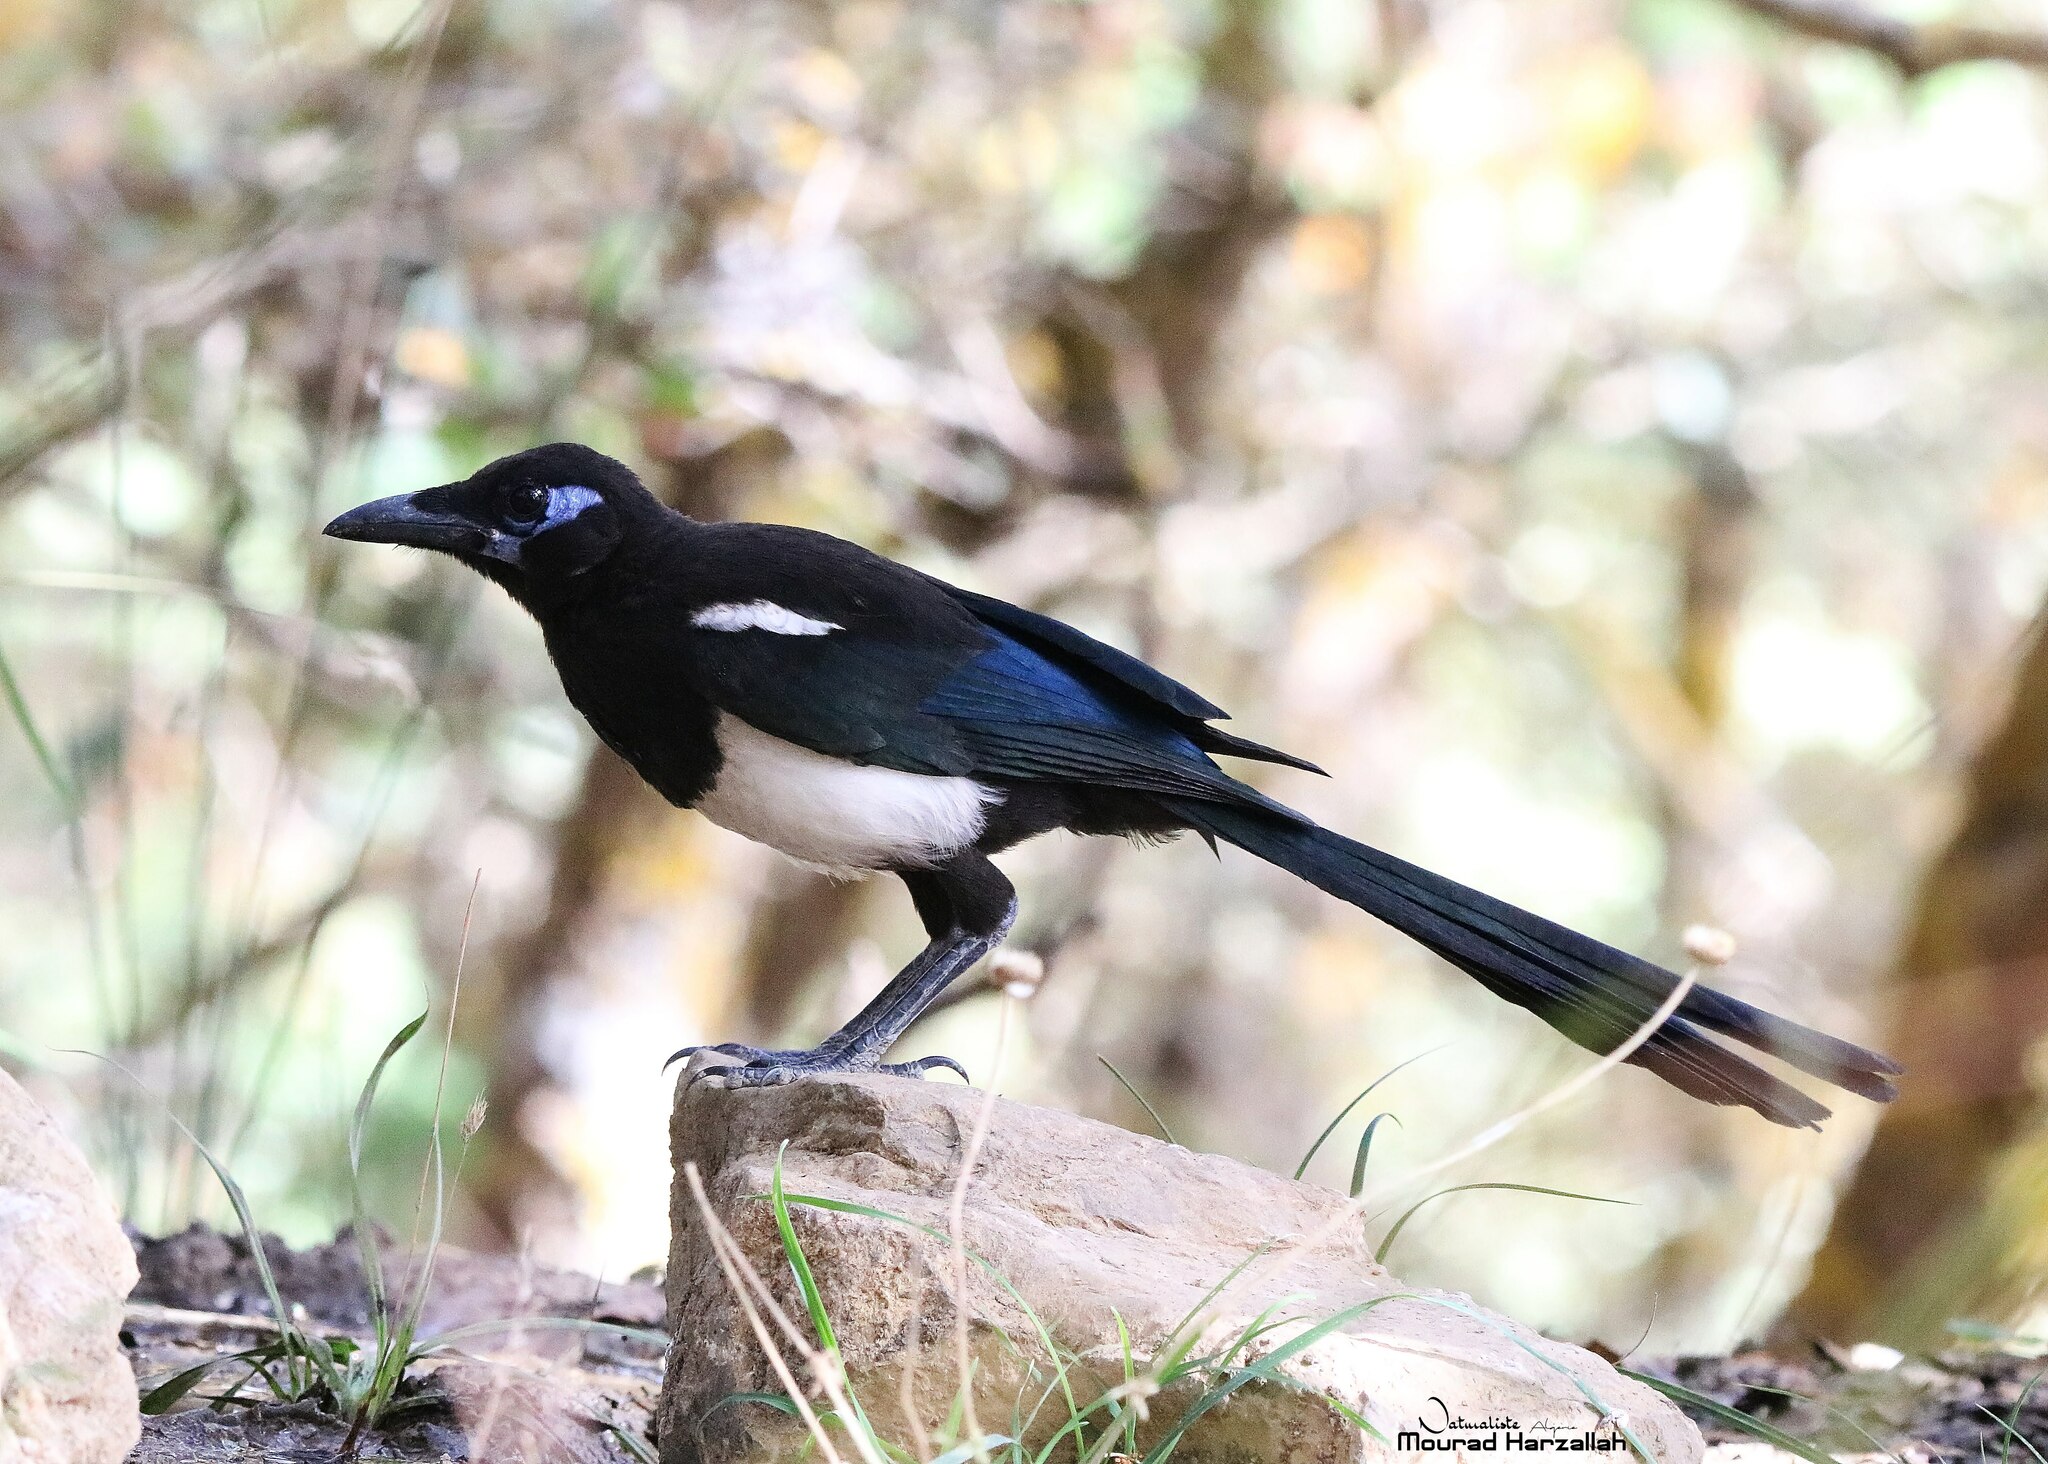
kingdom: Animalia
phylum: Chordata
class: Aves
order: Passeriformes
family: Corvidae
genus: Pica
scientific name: Pica mauritanica
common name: Maghreb magpie
